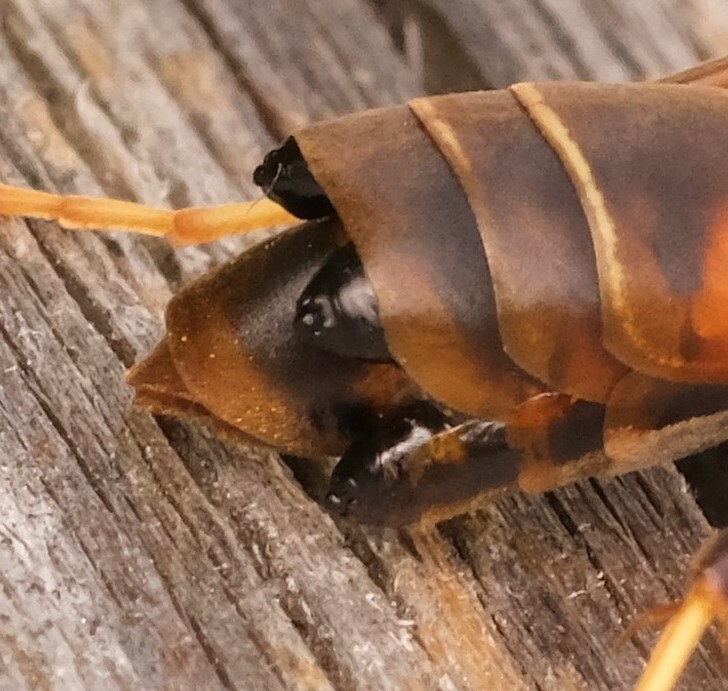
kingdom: Animalia
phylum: Arthropoda
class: Insecta
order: Strepsiptera
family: Xenidae
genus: Xenos
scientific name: Xenos pecki
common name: Twisted wing parasite
